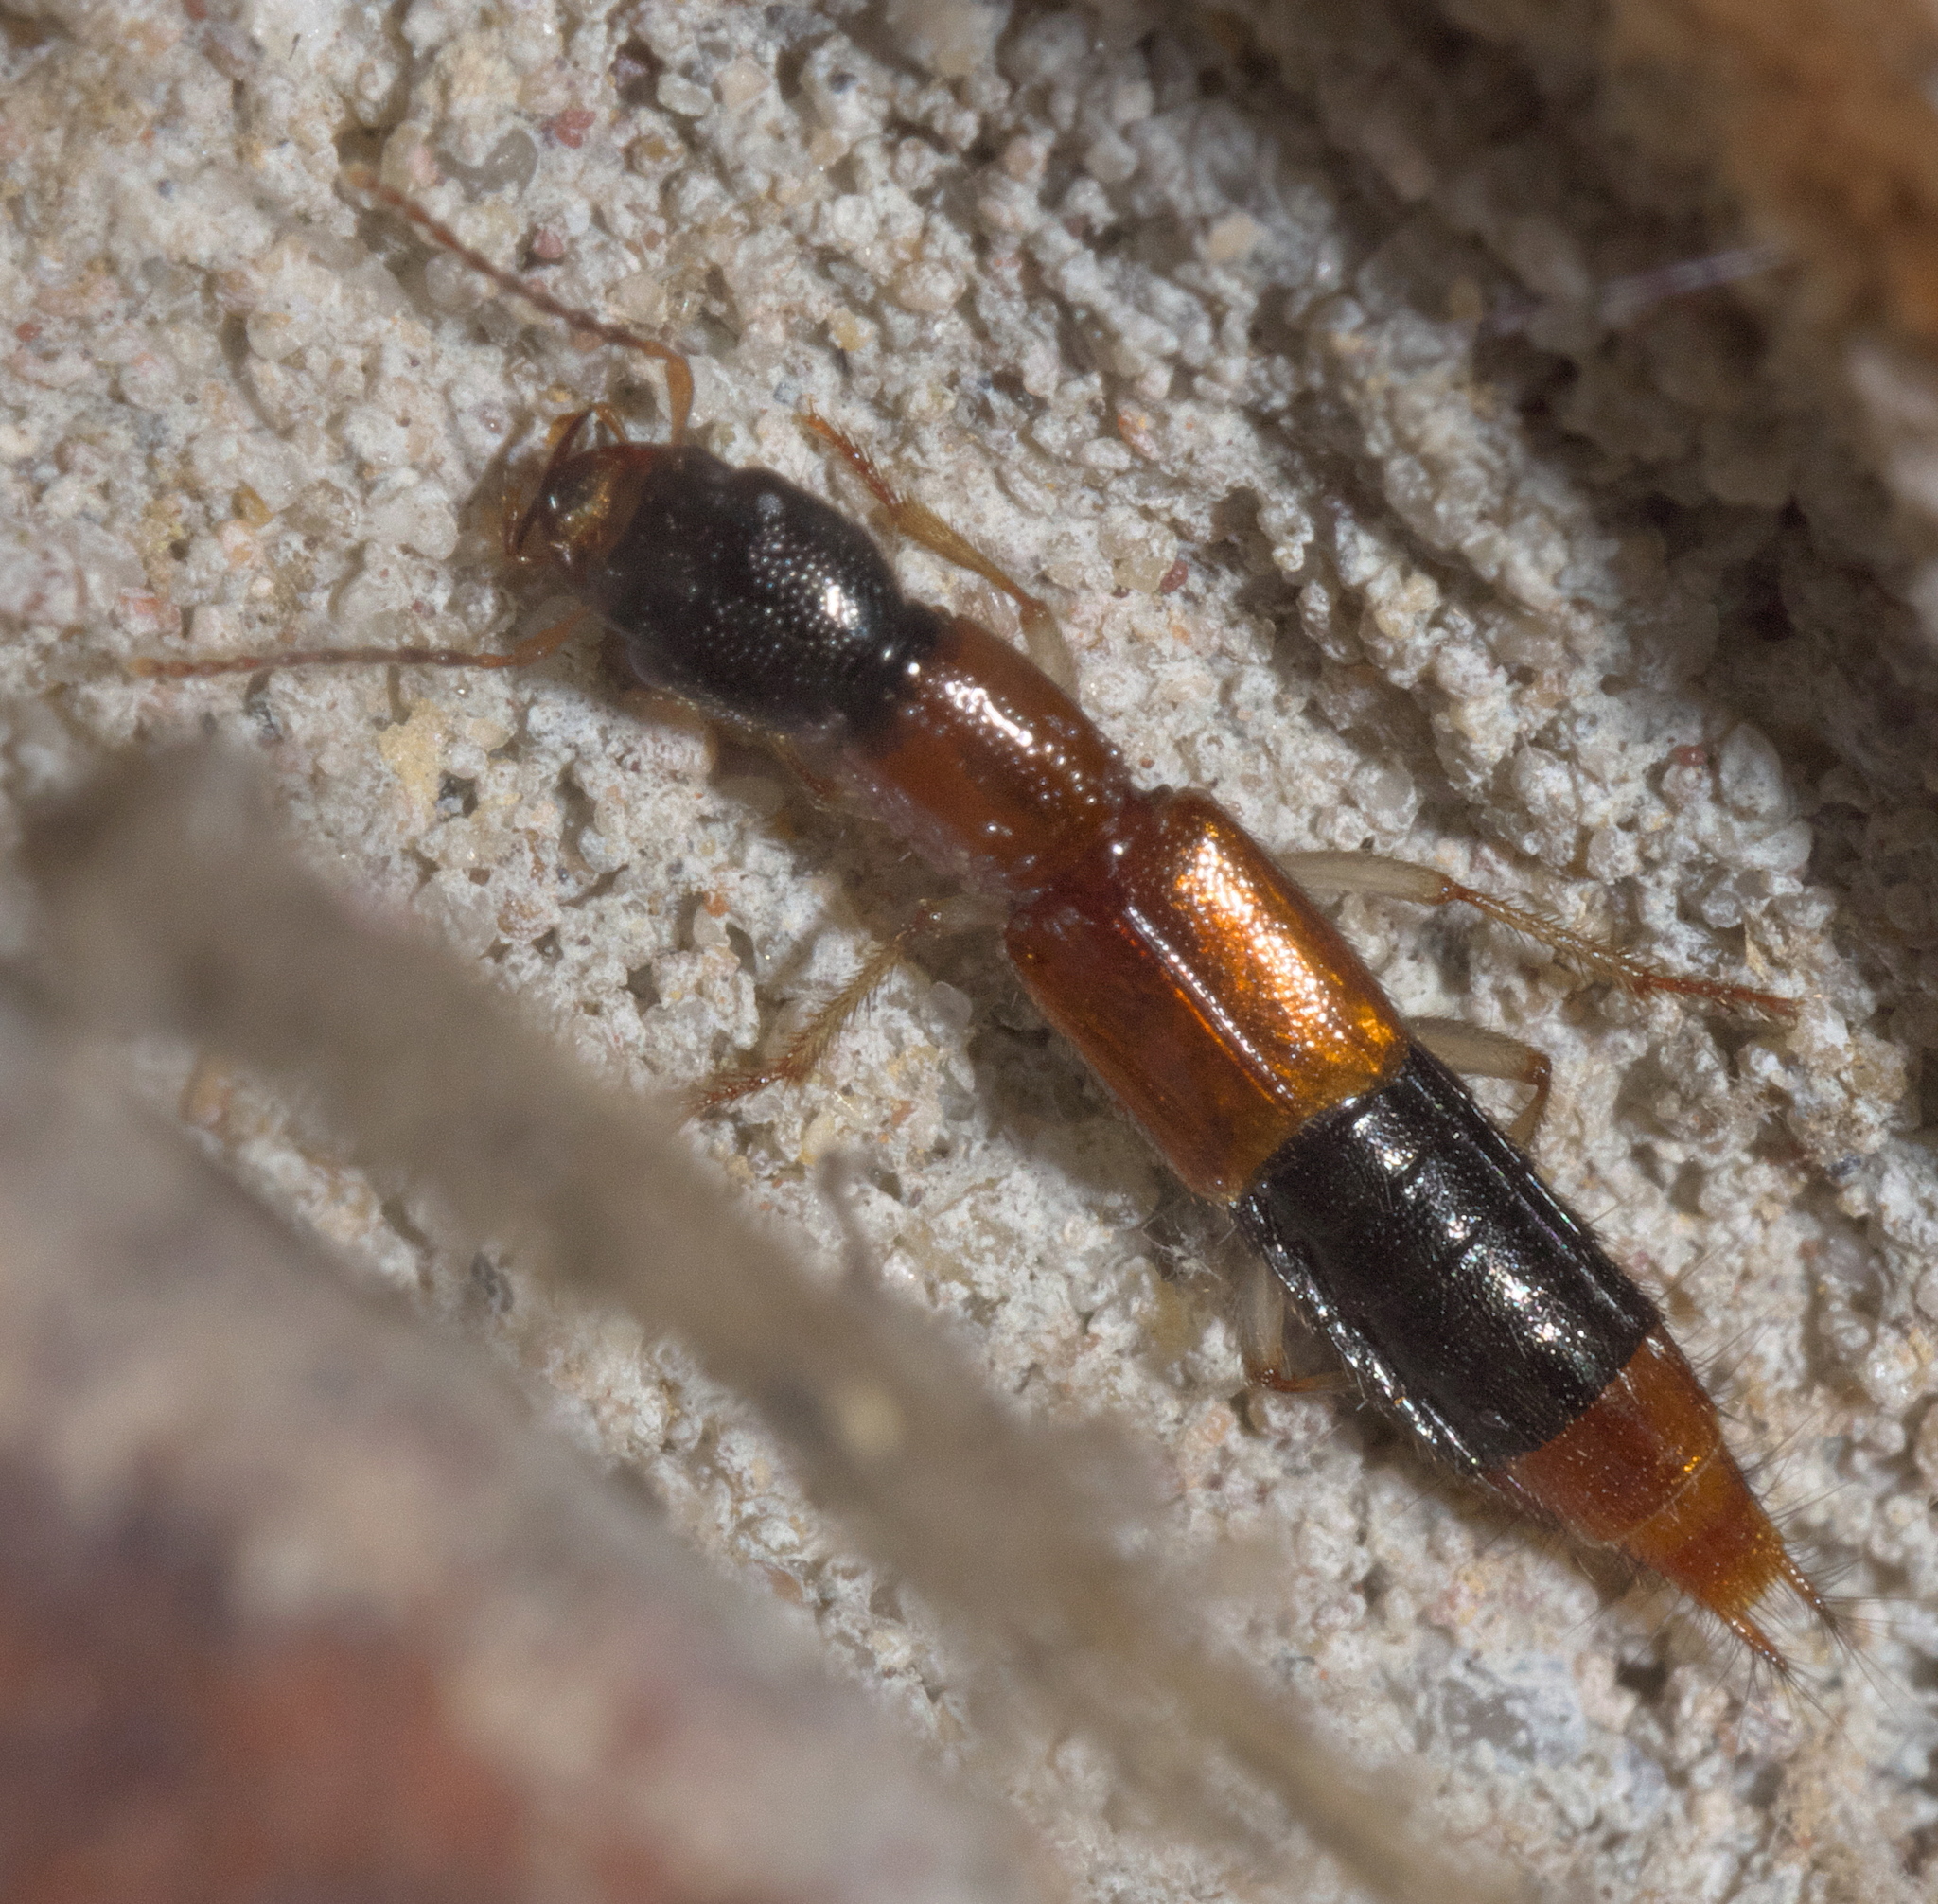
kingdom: Animalia
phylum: Arthropoda
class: Insecta
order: Coleoptera
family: Staphylinidae
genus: Homaeotarsus
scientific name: Homaeotarsus bicolor
